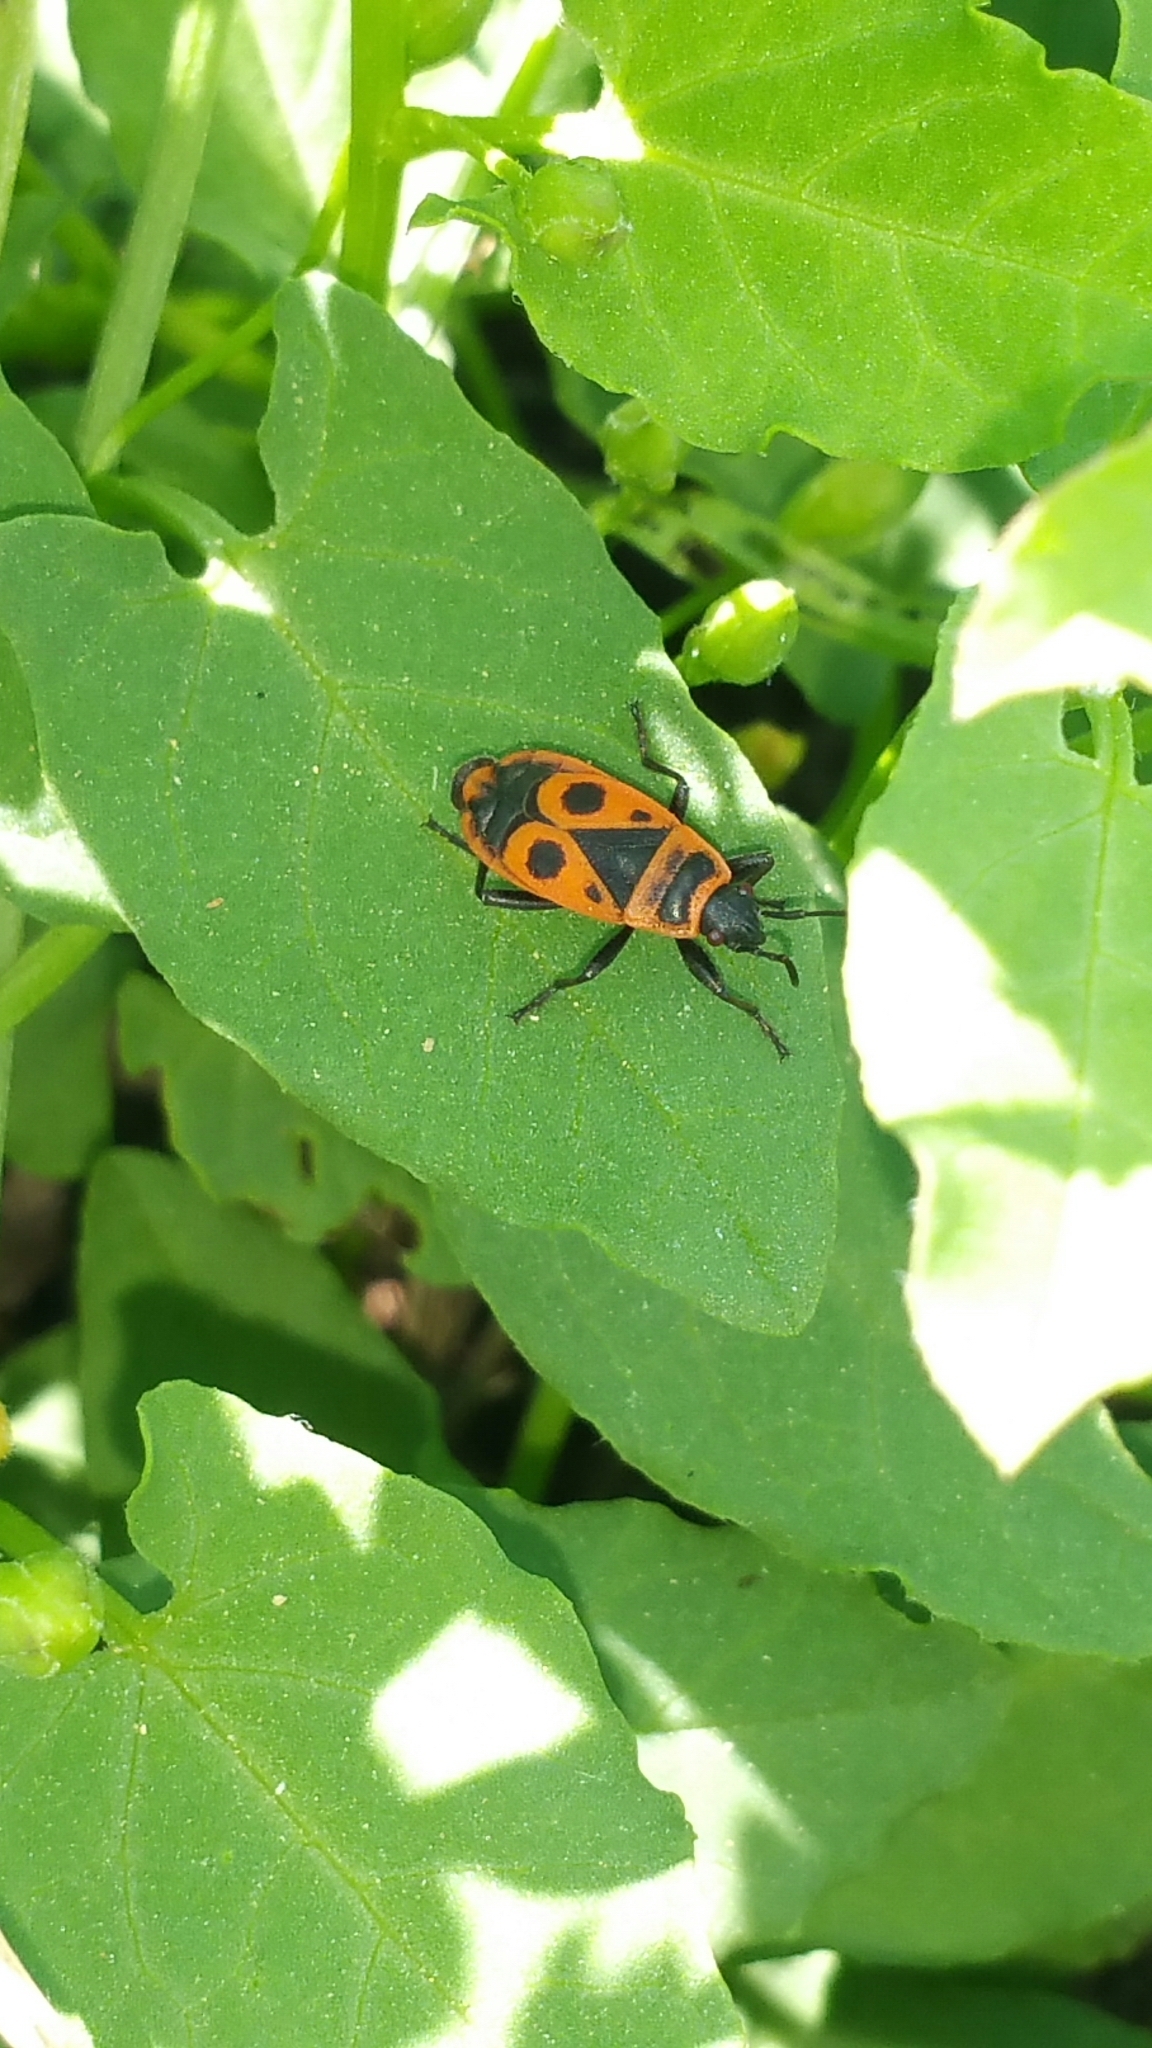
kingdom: Animalia
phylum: Arthropoda
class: Insecta
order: Hemiptera
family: Pyrrhocoridae
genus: Pyrrhocoris
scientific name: Pyrrhocoris apterus
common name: Firebug
